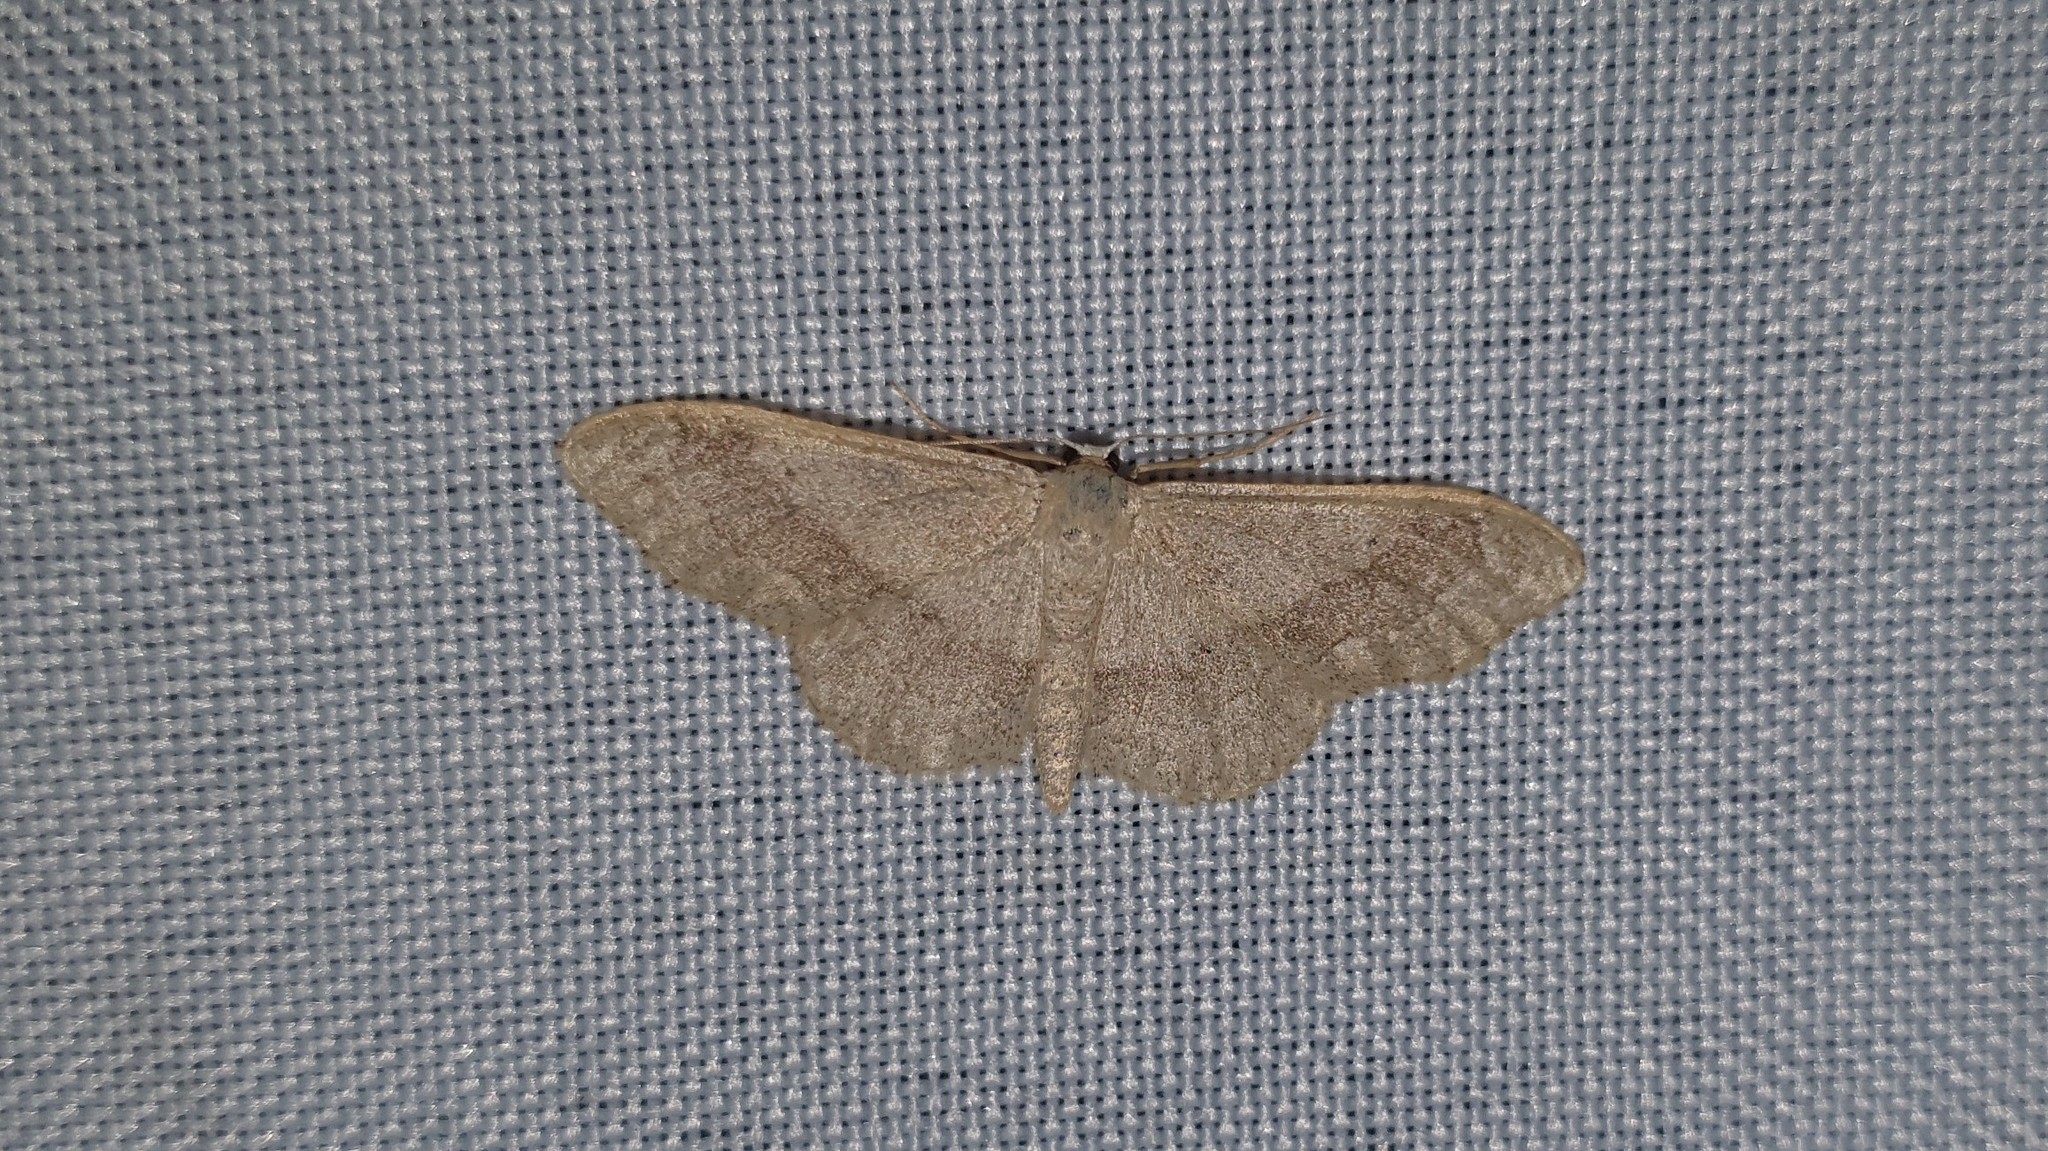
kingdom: Animalia
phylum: Arthropoda
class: Insecta
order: Lepidoptera
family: Geometridae
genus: Idaea
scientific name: Idaea aversata
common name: Riband wave
